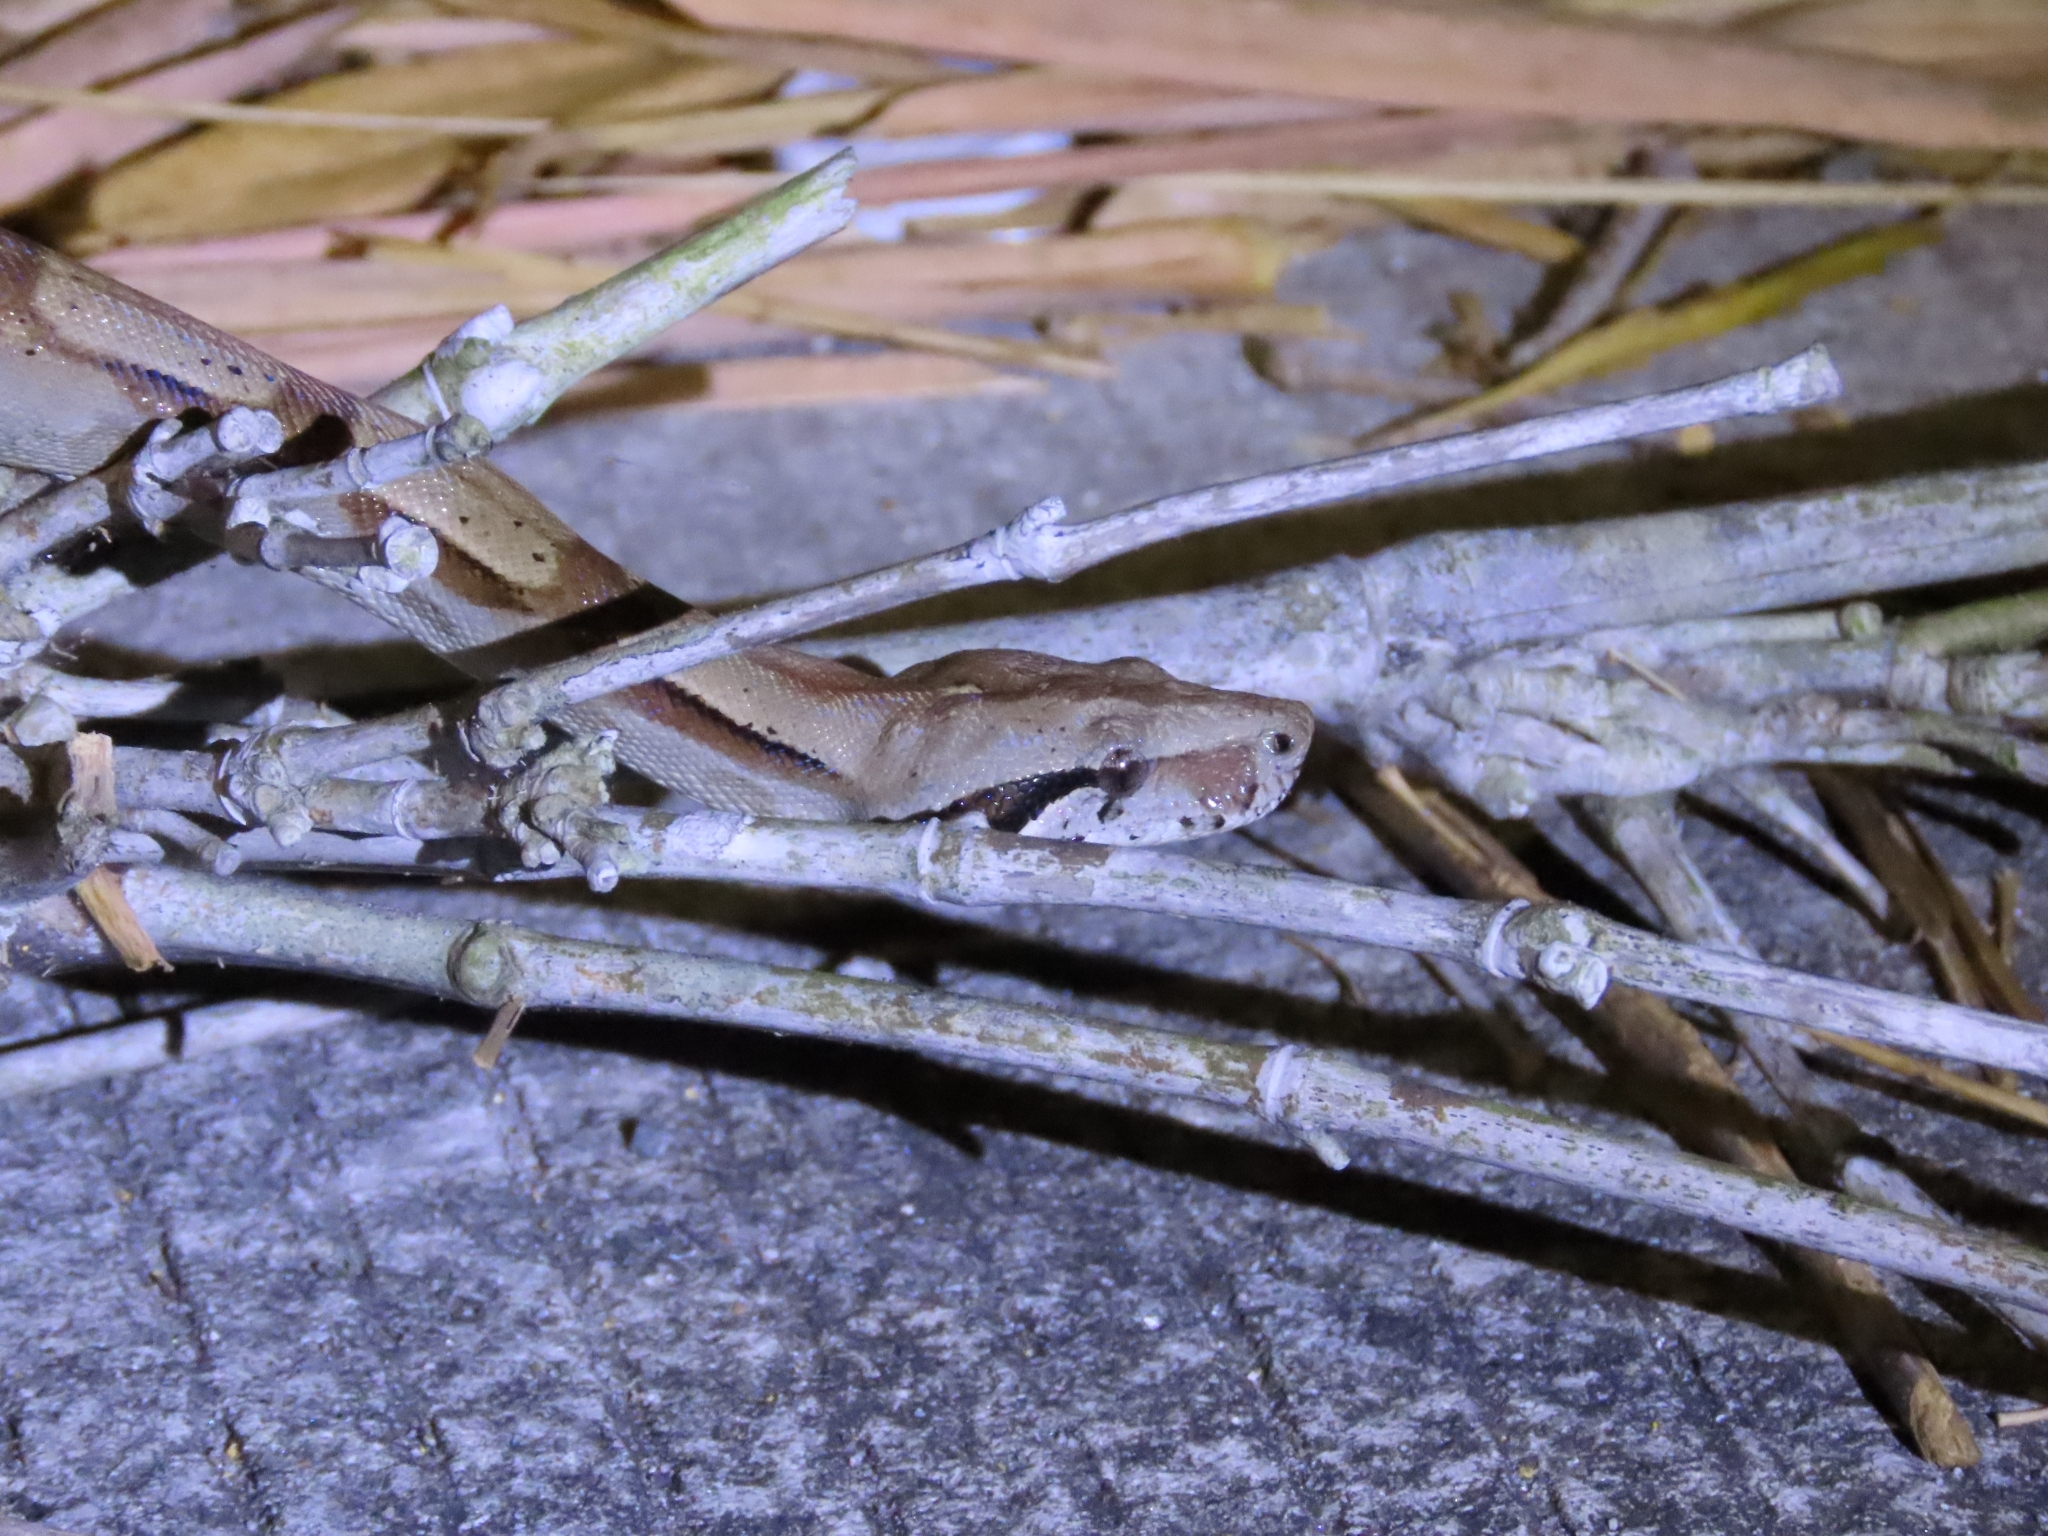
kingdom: Animalia
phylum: Chordata
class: Squamata
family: Boidae
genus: Boa
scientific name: Boa imperator
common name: Central american boa
